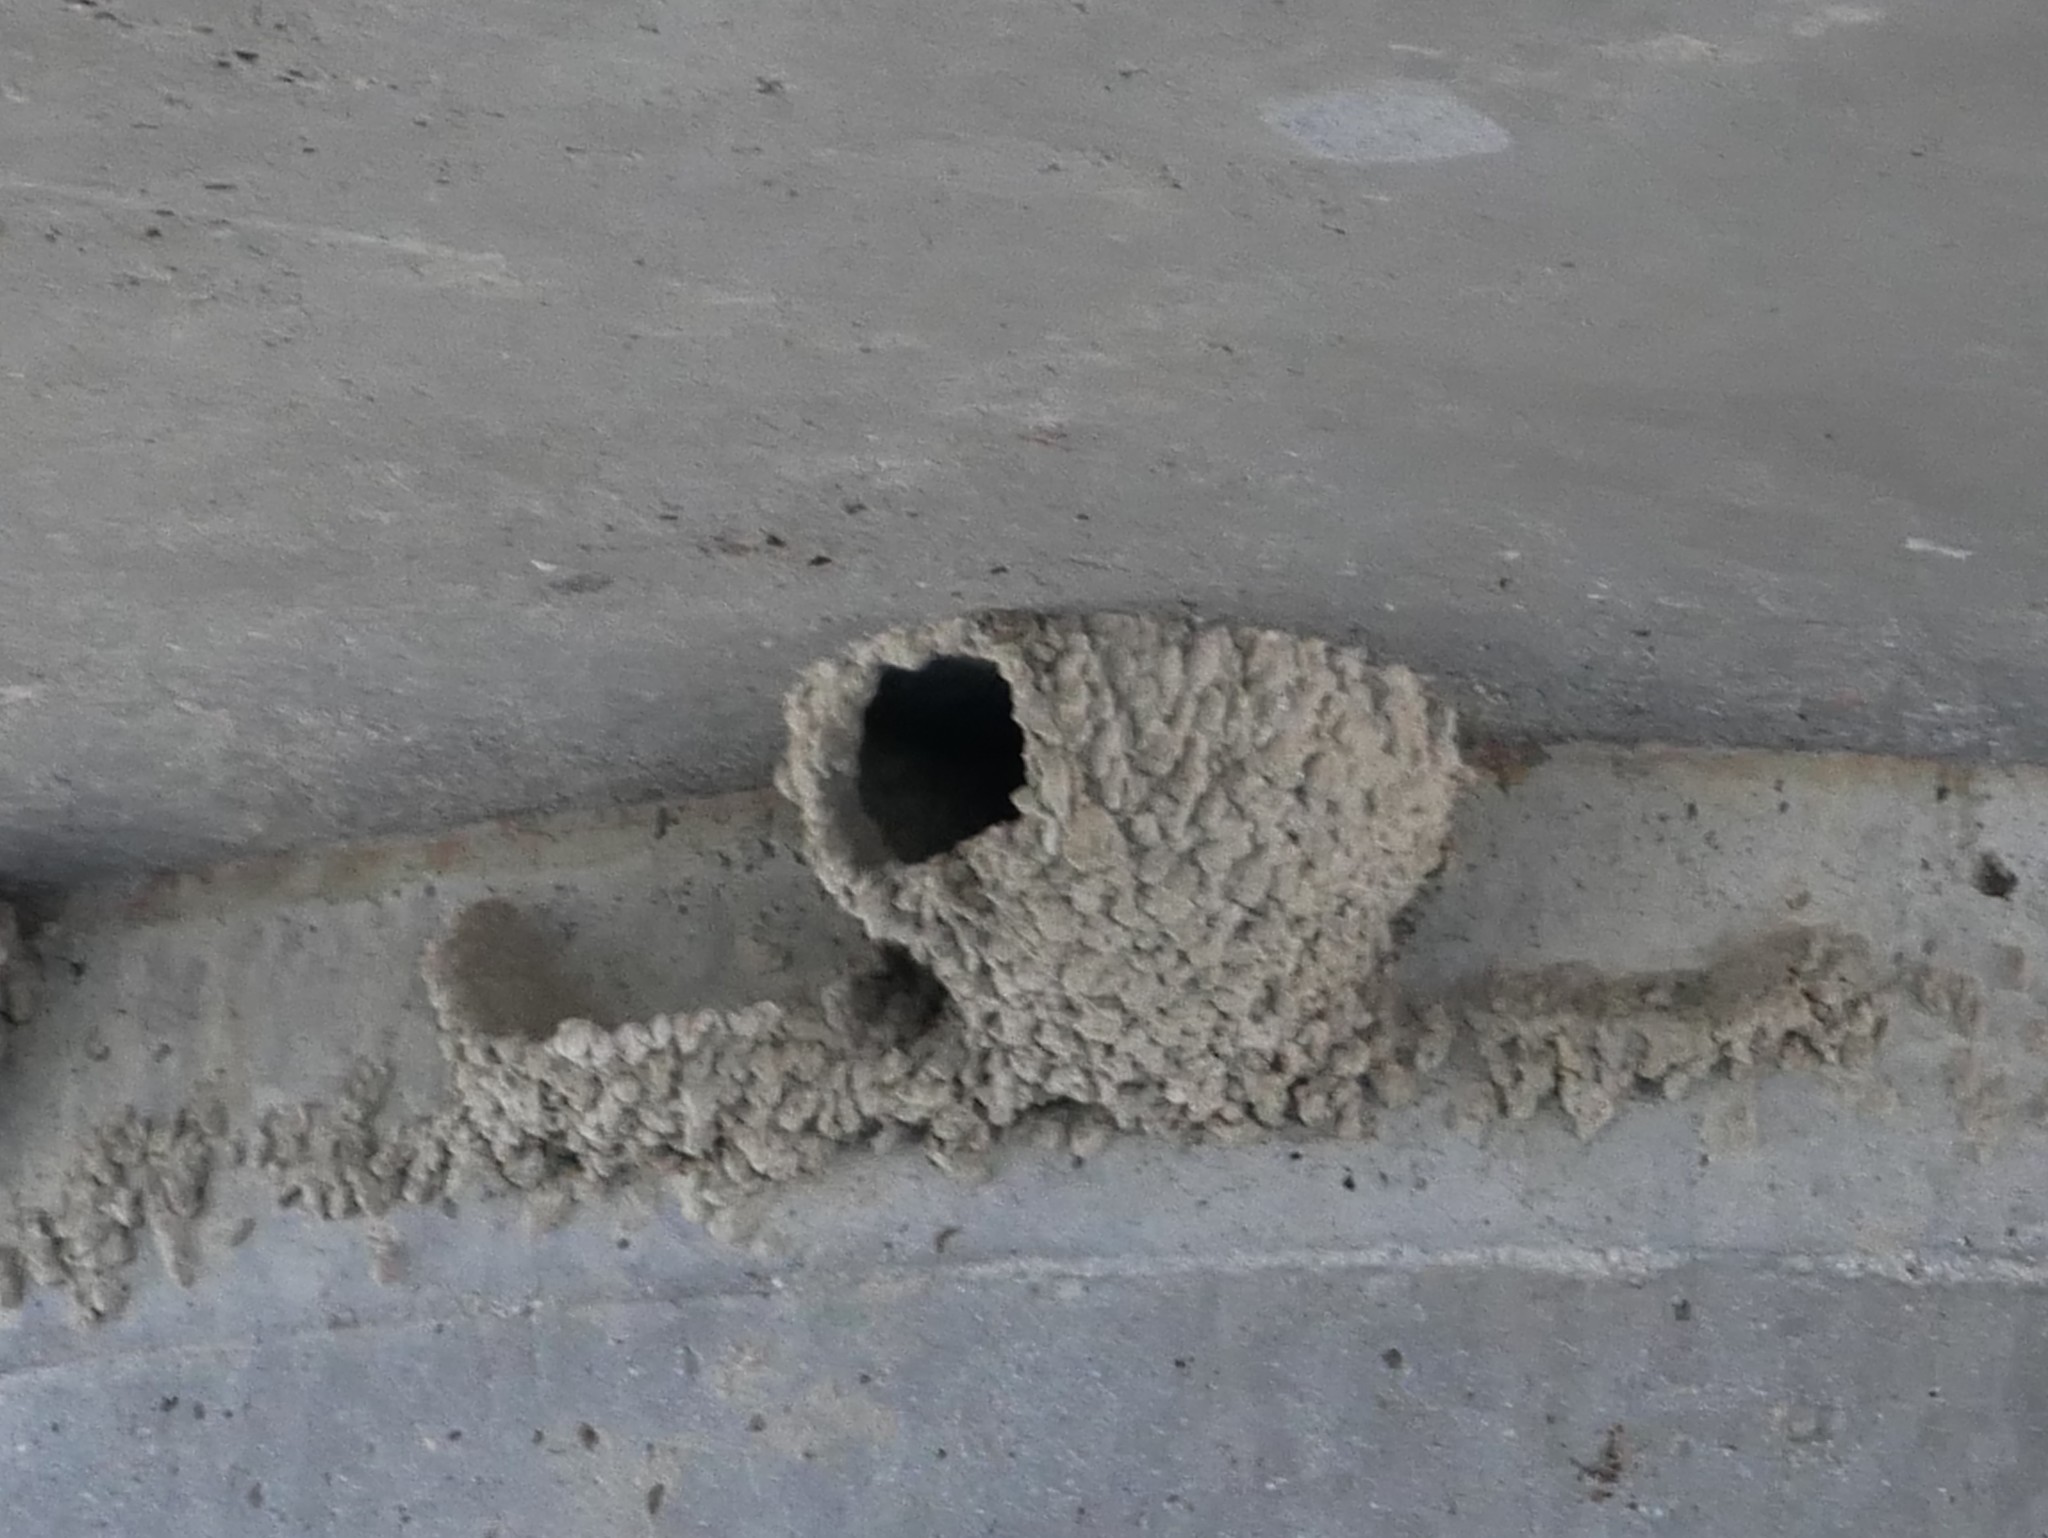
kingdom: Animalia
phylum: Chordata
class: Aves
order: Passeriformes
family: Hirundinidae
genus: Petrochelidon
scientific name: Petrochelidon pyrrhonota
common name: American cliff swallow
